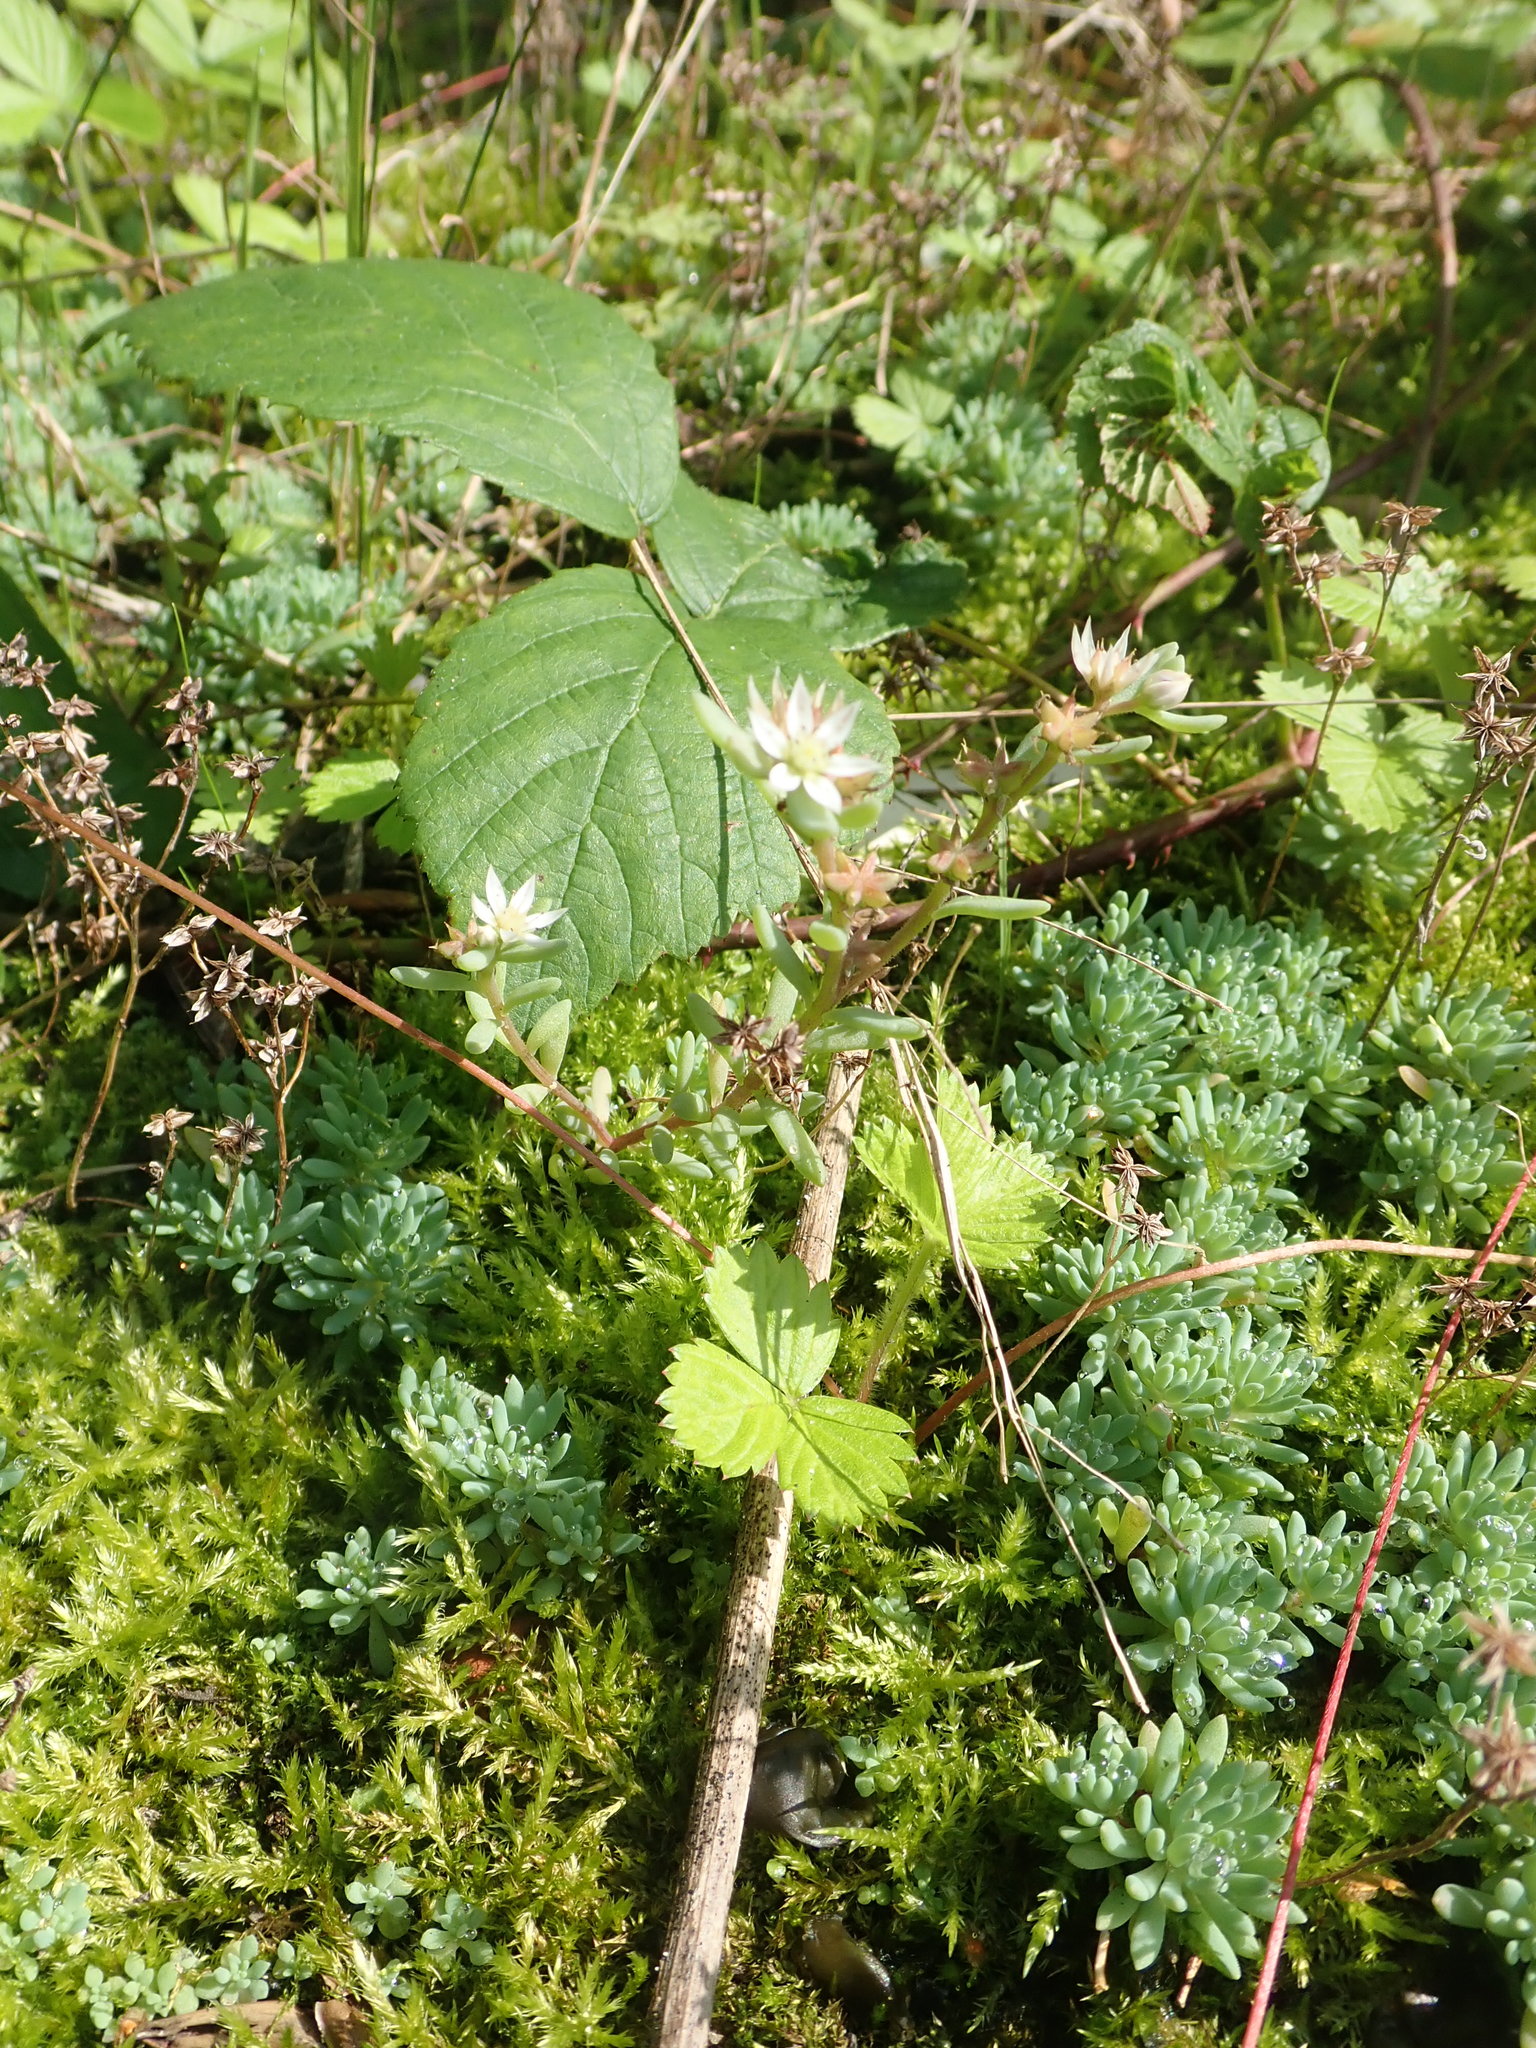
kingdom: Plantae
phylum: Tracheophyta
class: Magnoliopsida
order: Saxifragales
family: Crassulaceae
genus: Sedum
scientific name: Sedum hispanicum
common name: Spanish stonecrop
